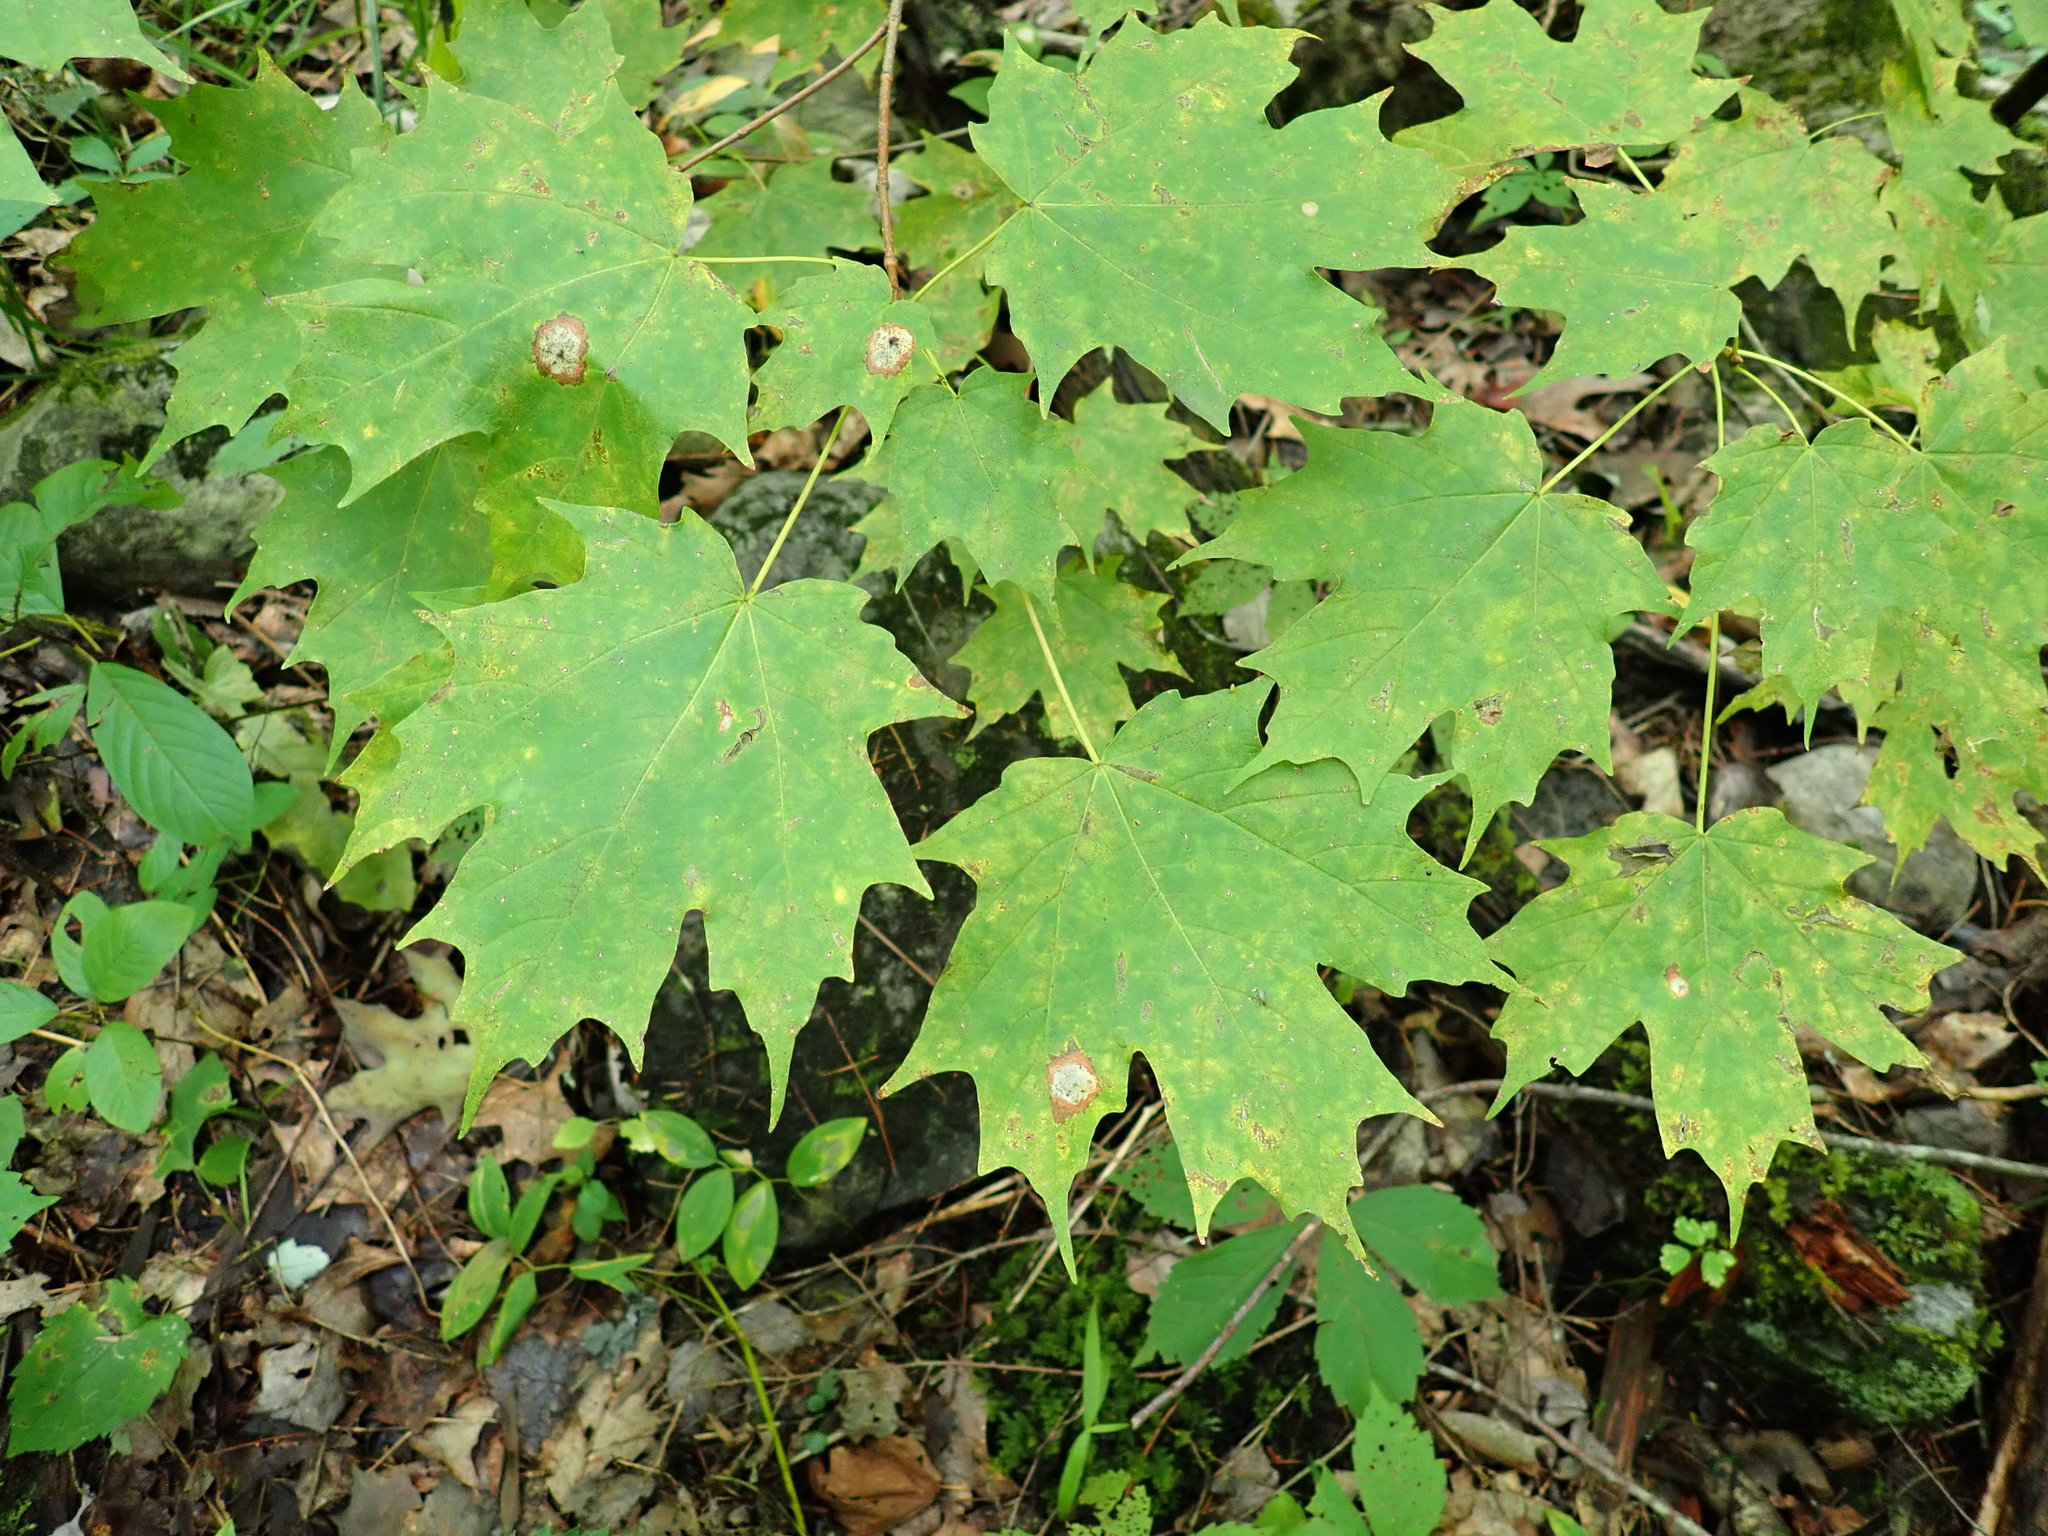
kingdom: Plantae
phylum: Tracheophyta
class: Magnoliopsida
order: Sapindales
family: Sapindaceae
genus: Acer
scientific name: Acer saccharum
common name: Sugar maple
